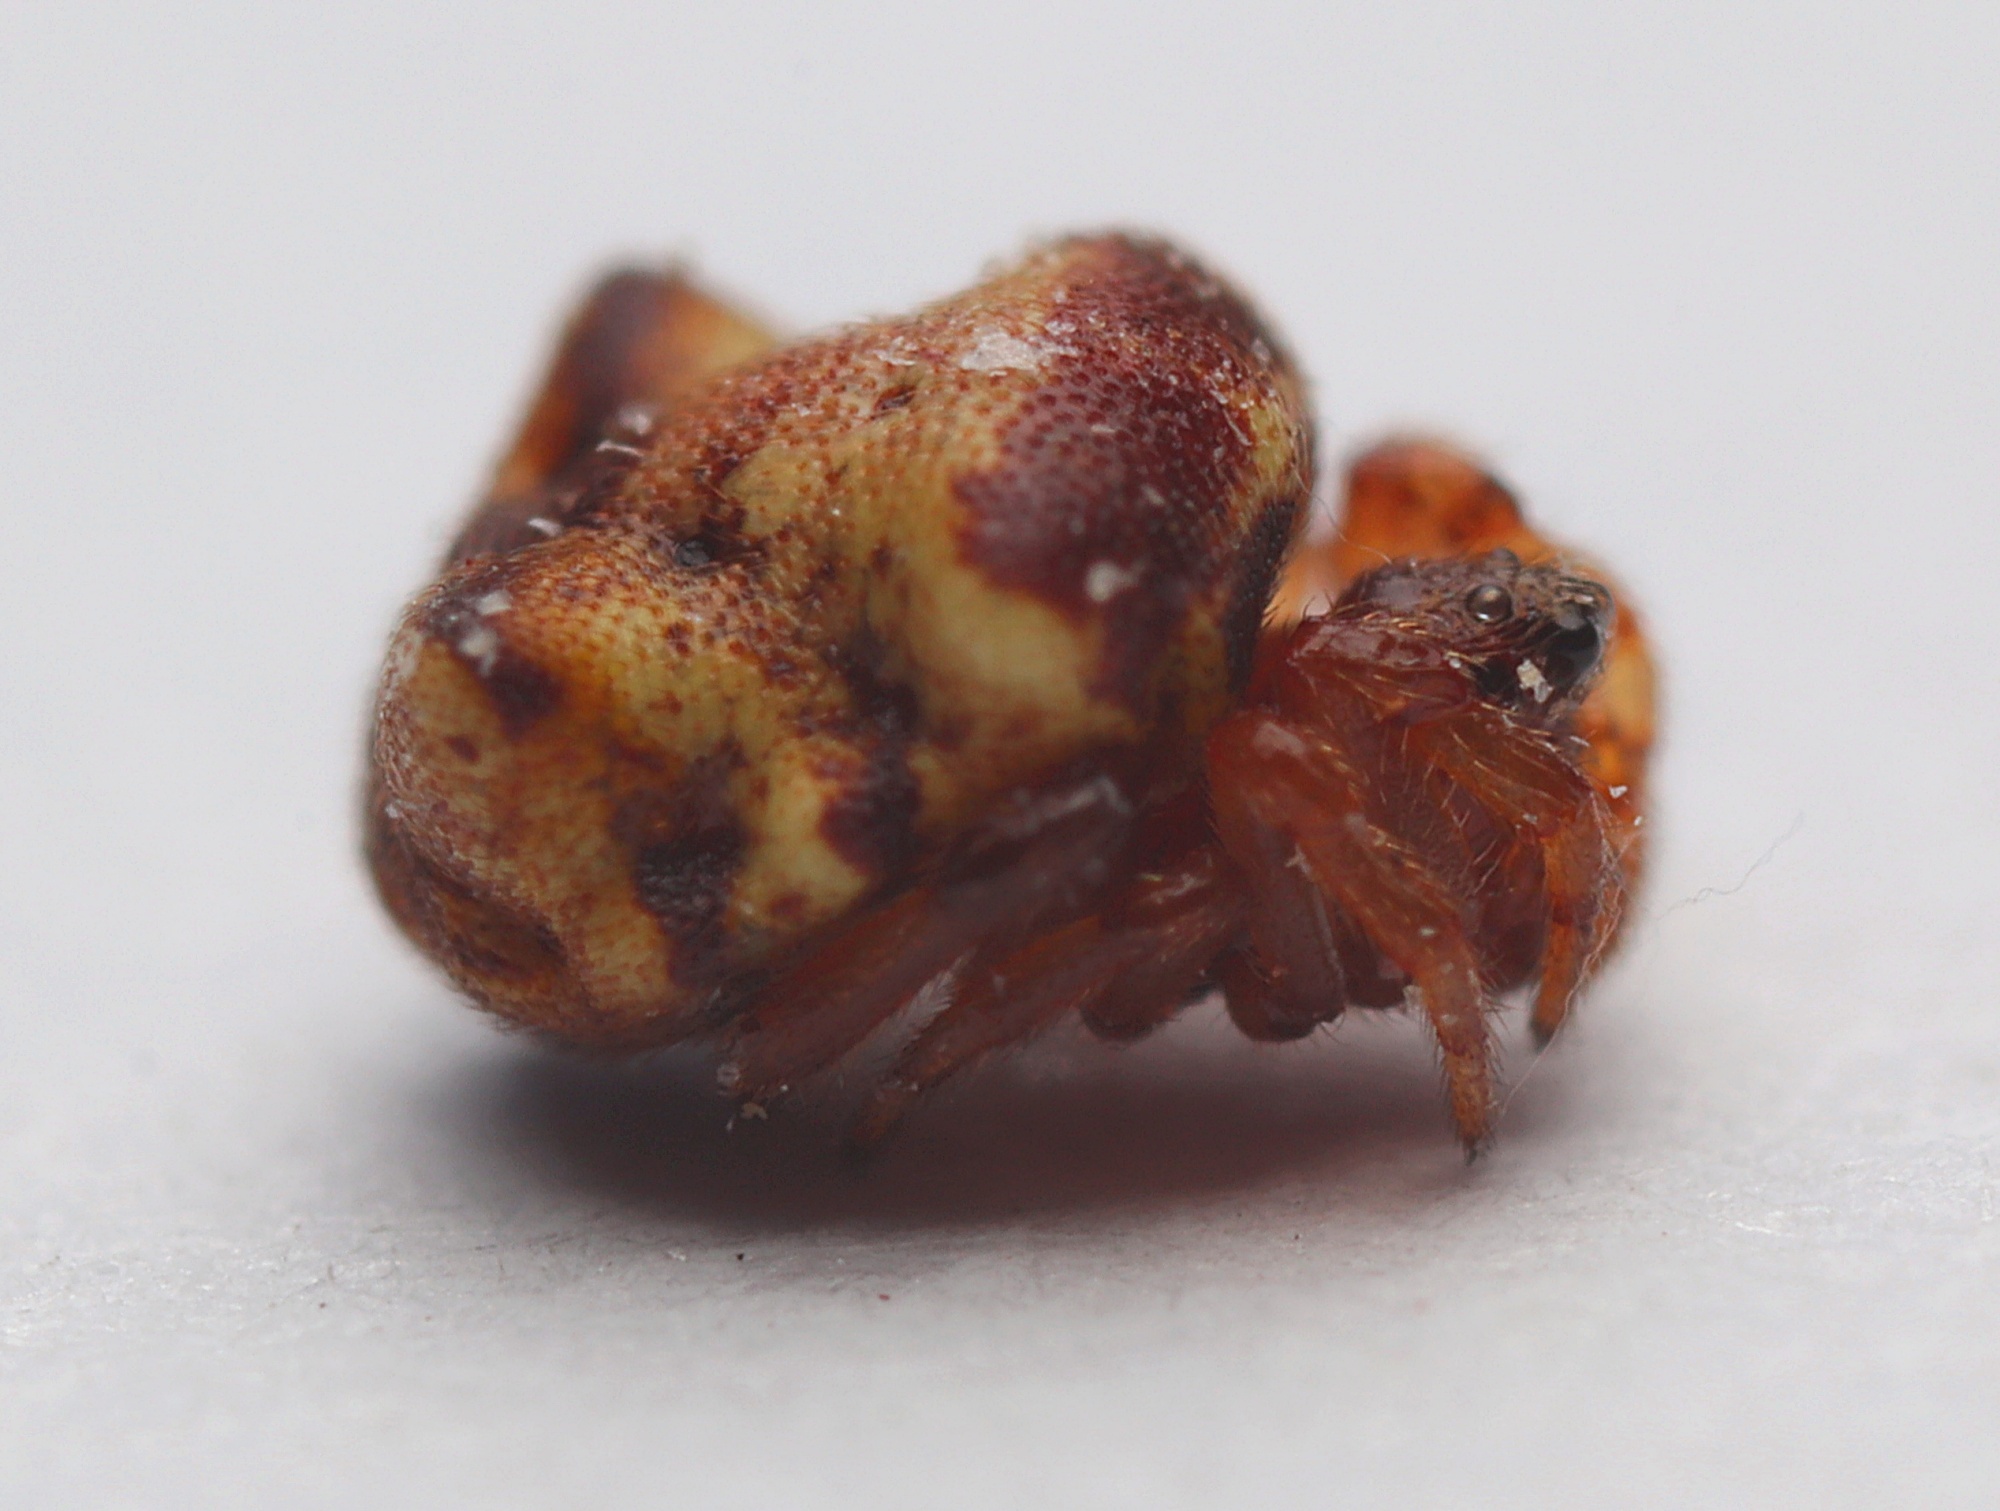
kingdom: Animalia
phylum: Arthropoda
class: Arachnida
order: Araneae
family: Theridiidae
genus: Phoroncidia
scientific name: Phoroncidia quadrata
